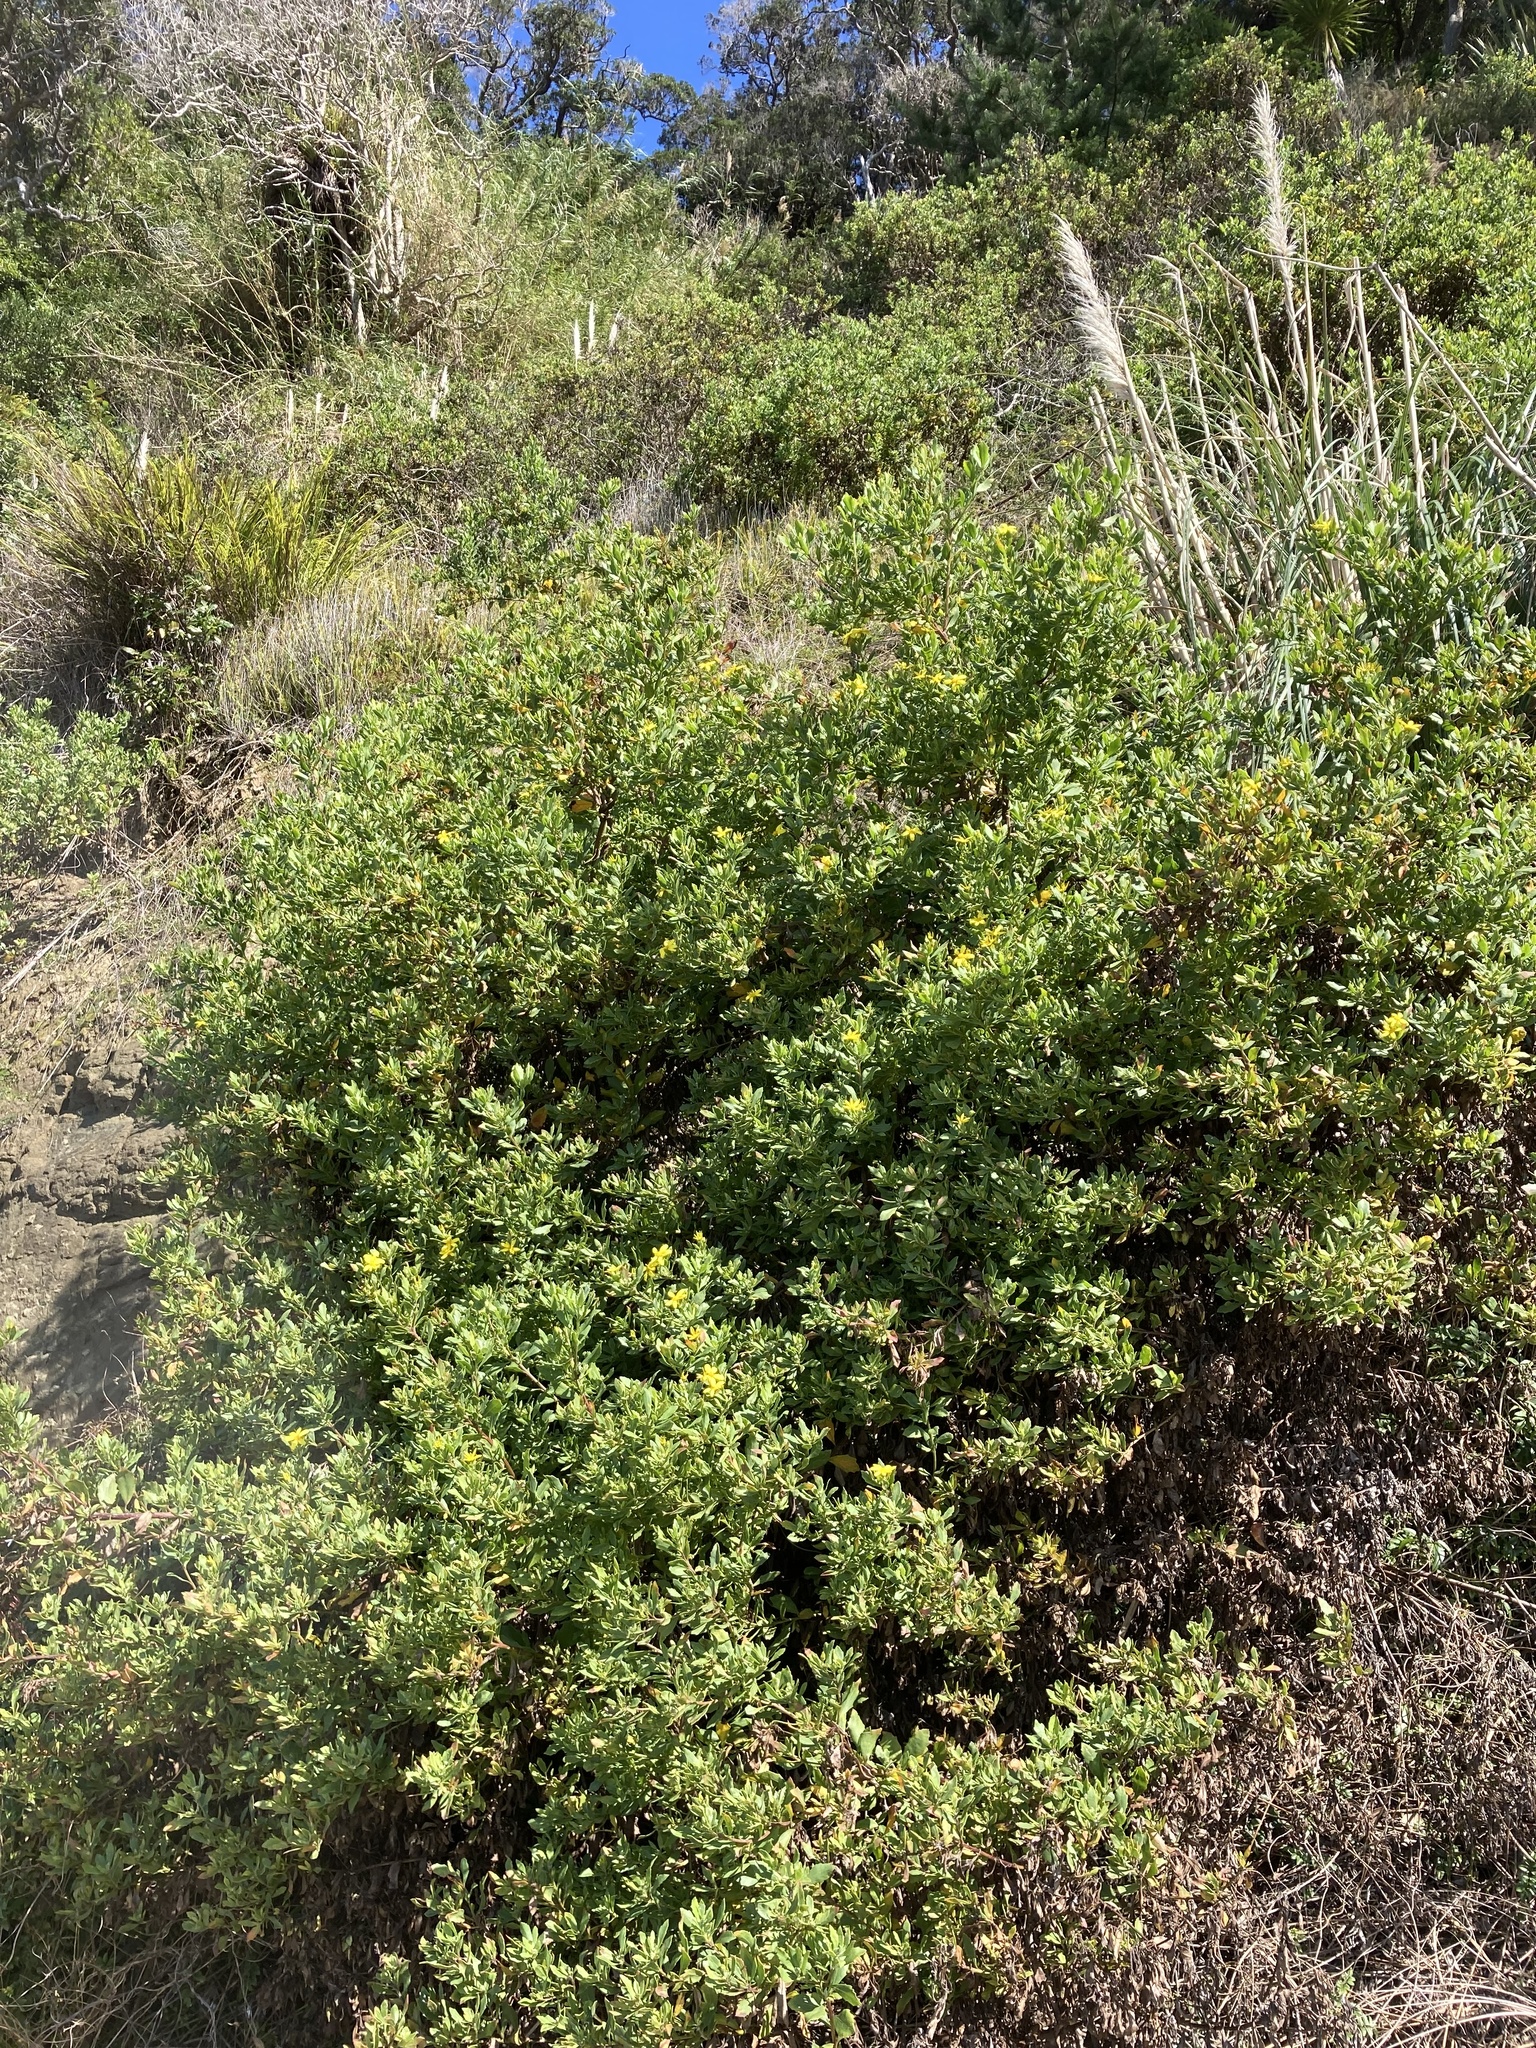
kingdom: Plantae
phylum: Tracheophyta
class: Magnoliopsida
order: Asterales
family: Asteraceae
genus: Osteospermum
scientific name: Osteospermum moniliferum
